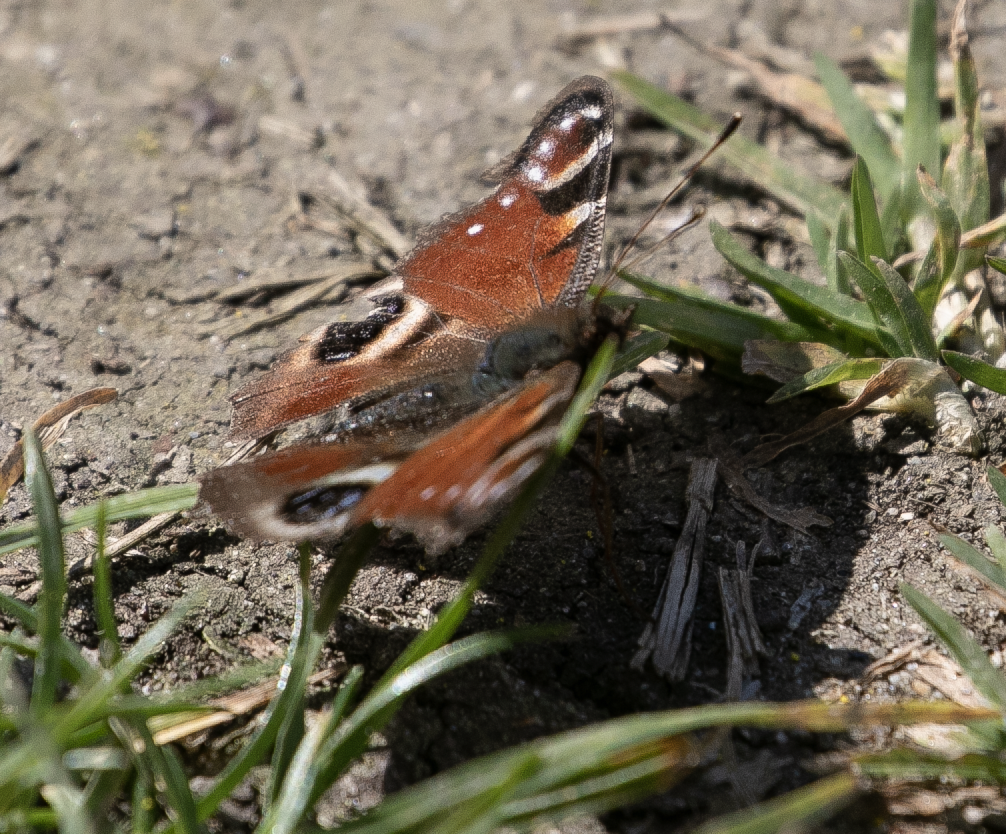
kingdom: Animalia
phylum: Arthropoda
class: Insecta
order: Lepidoptera
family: Nymphalidae
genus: Aglais
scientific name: Aglais io
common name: Peacock
